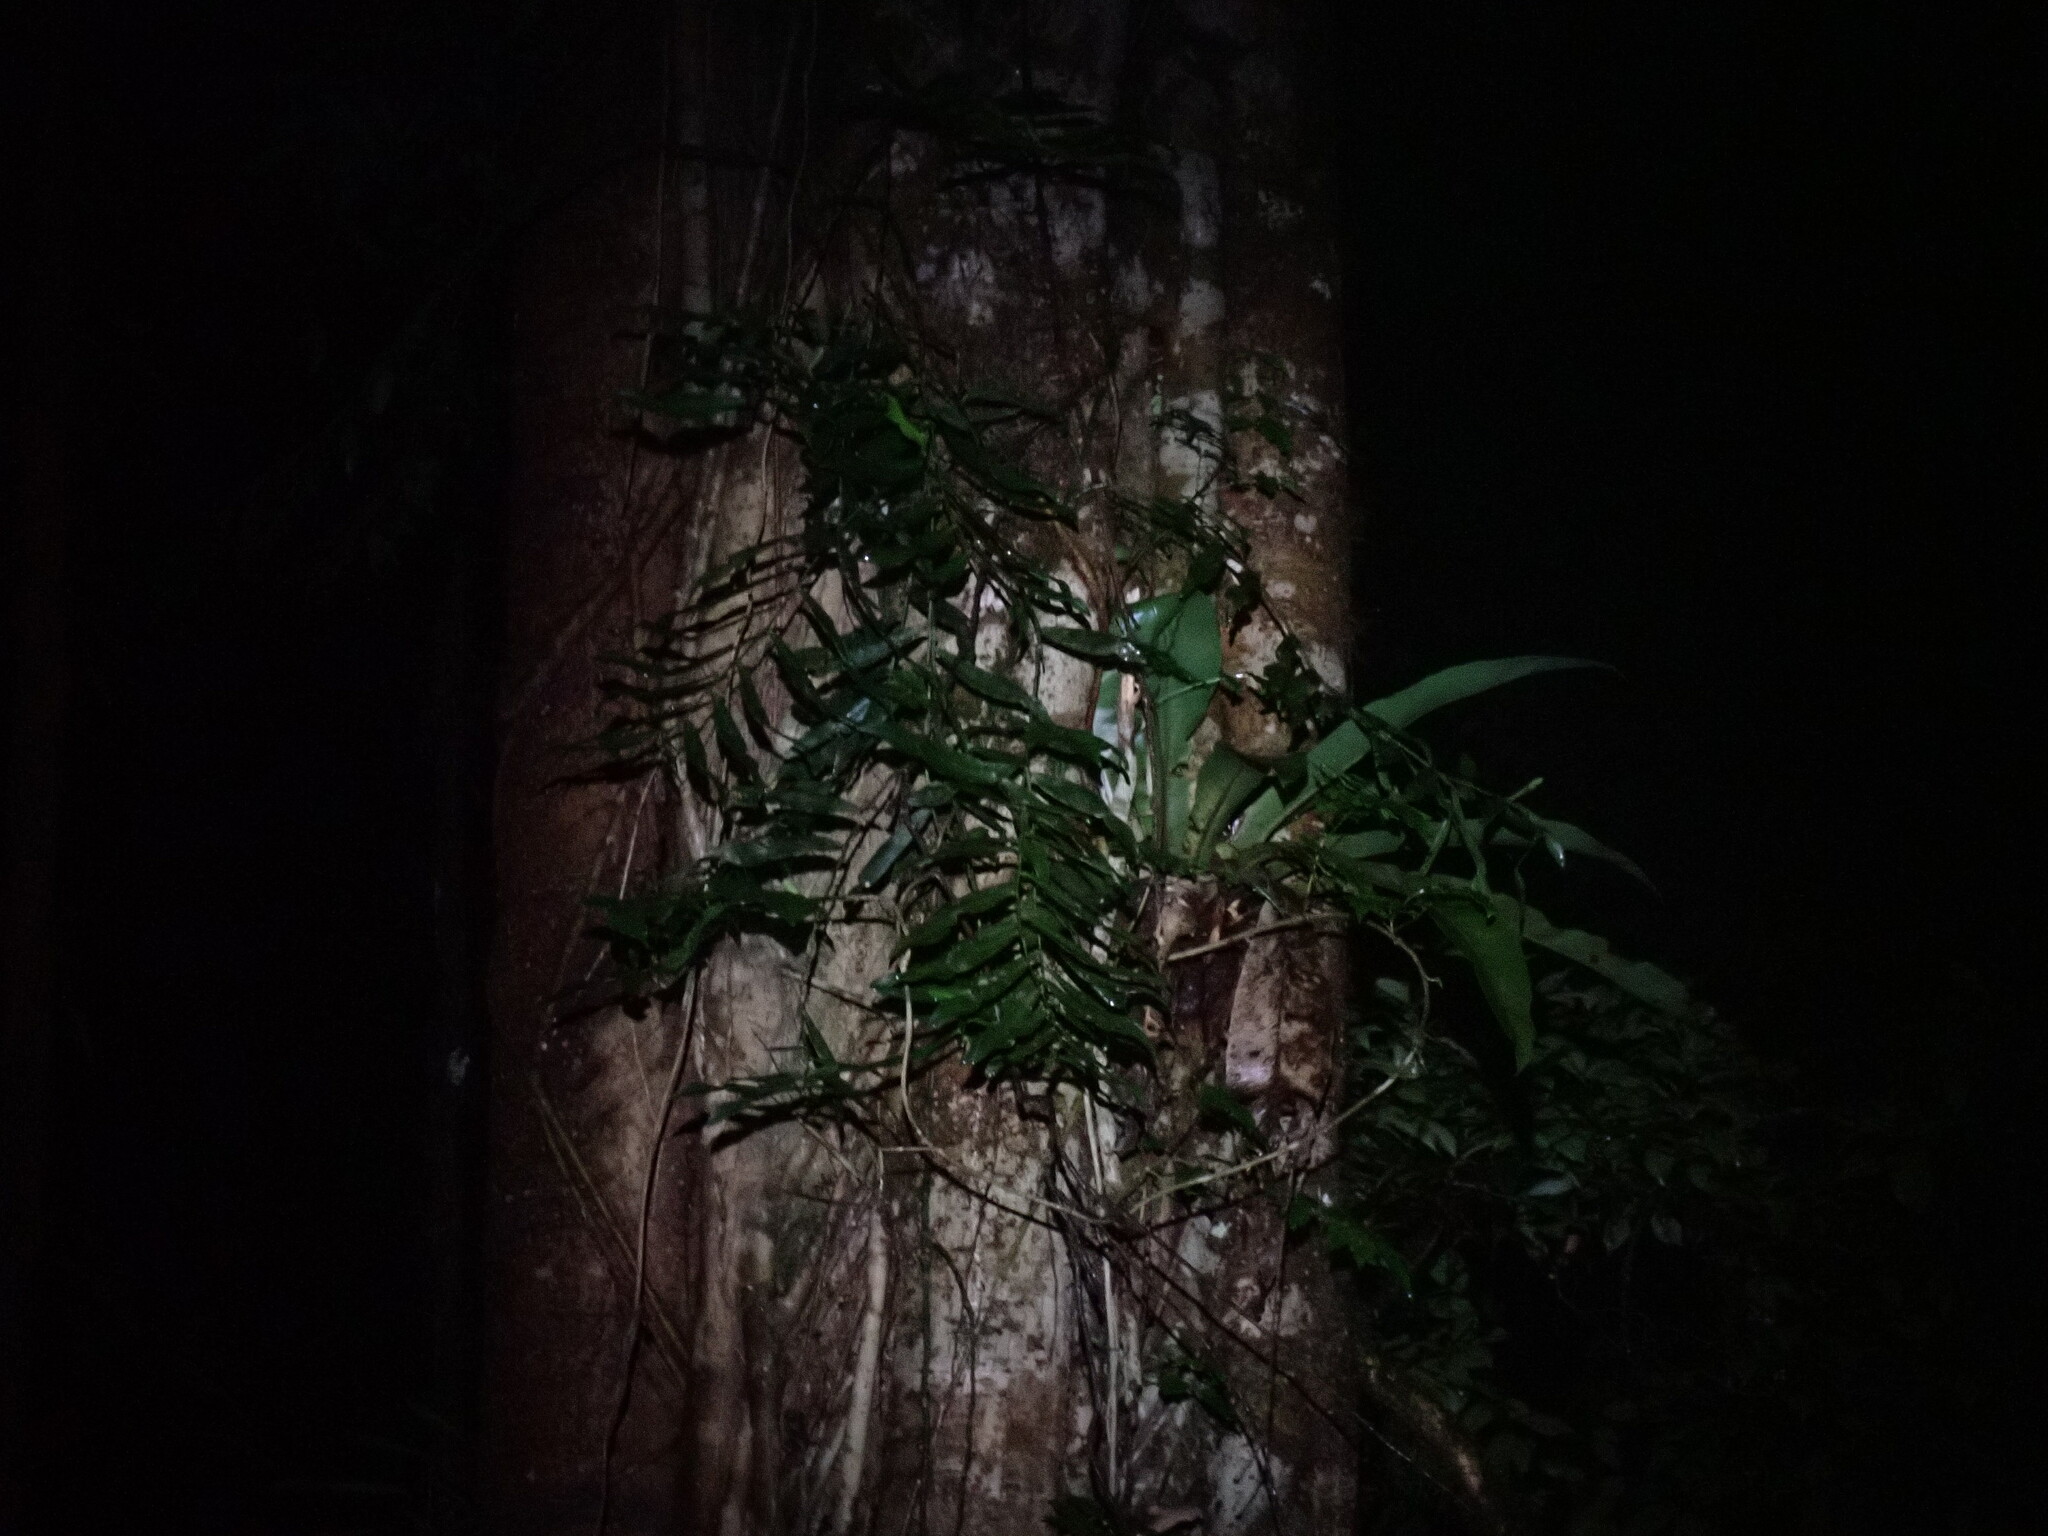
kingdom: Plantae
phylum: Tracheophyta
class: Liliopsida
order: Alismatales
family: Araceae
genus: Pothos
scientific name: Pothos longipes
